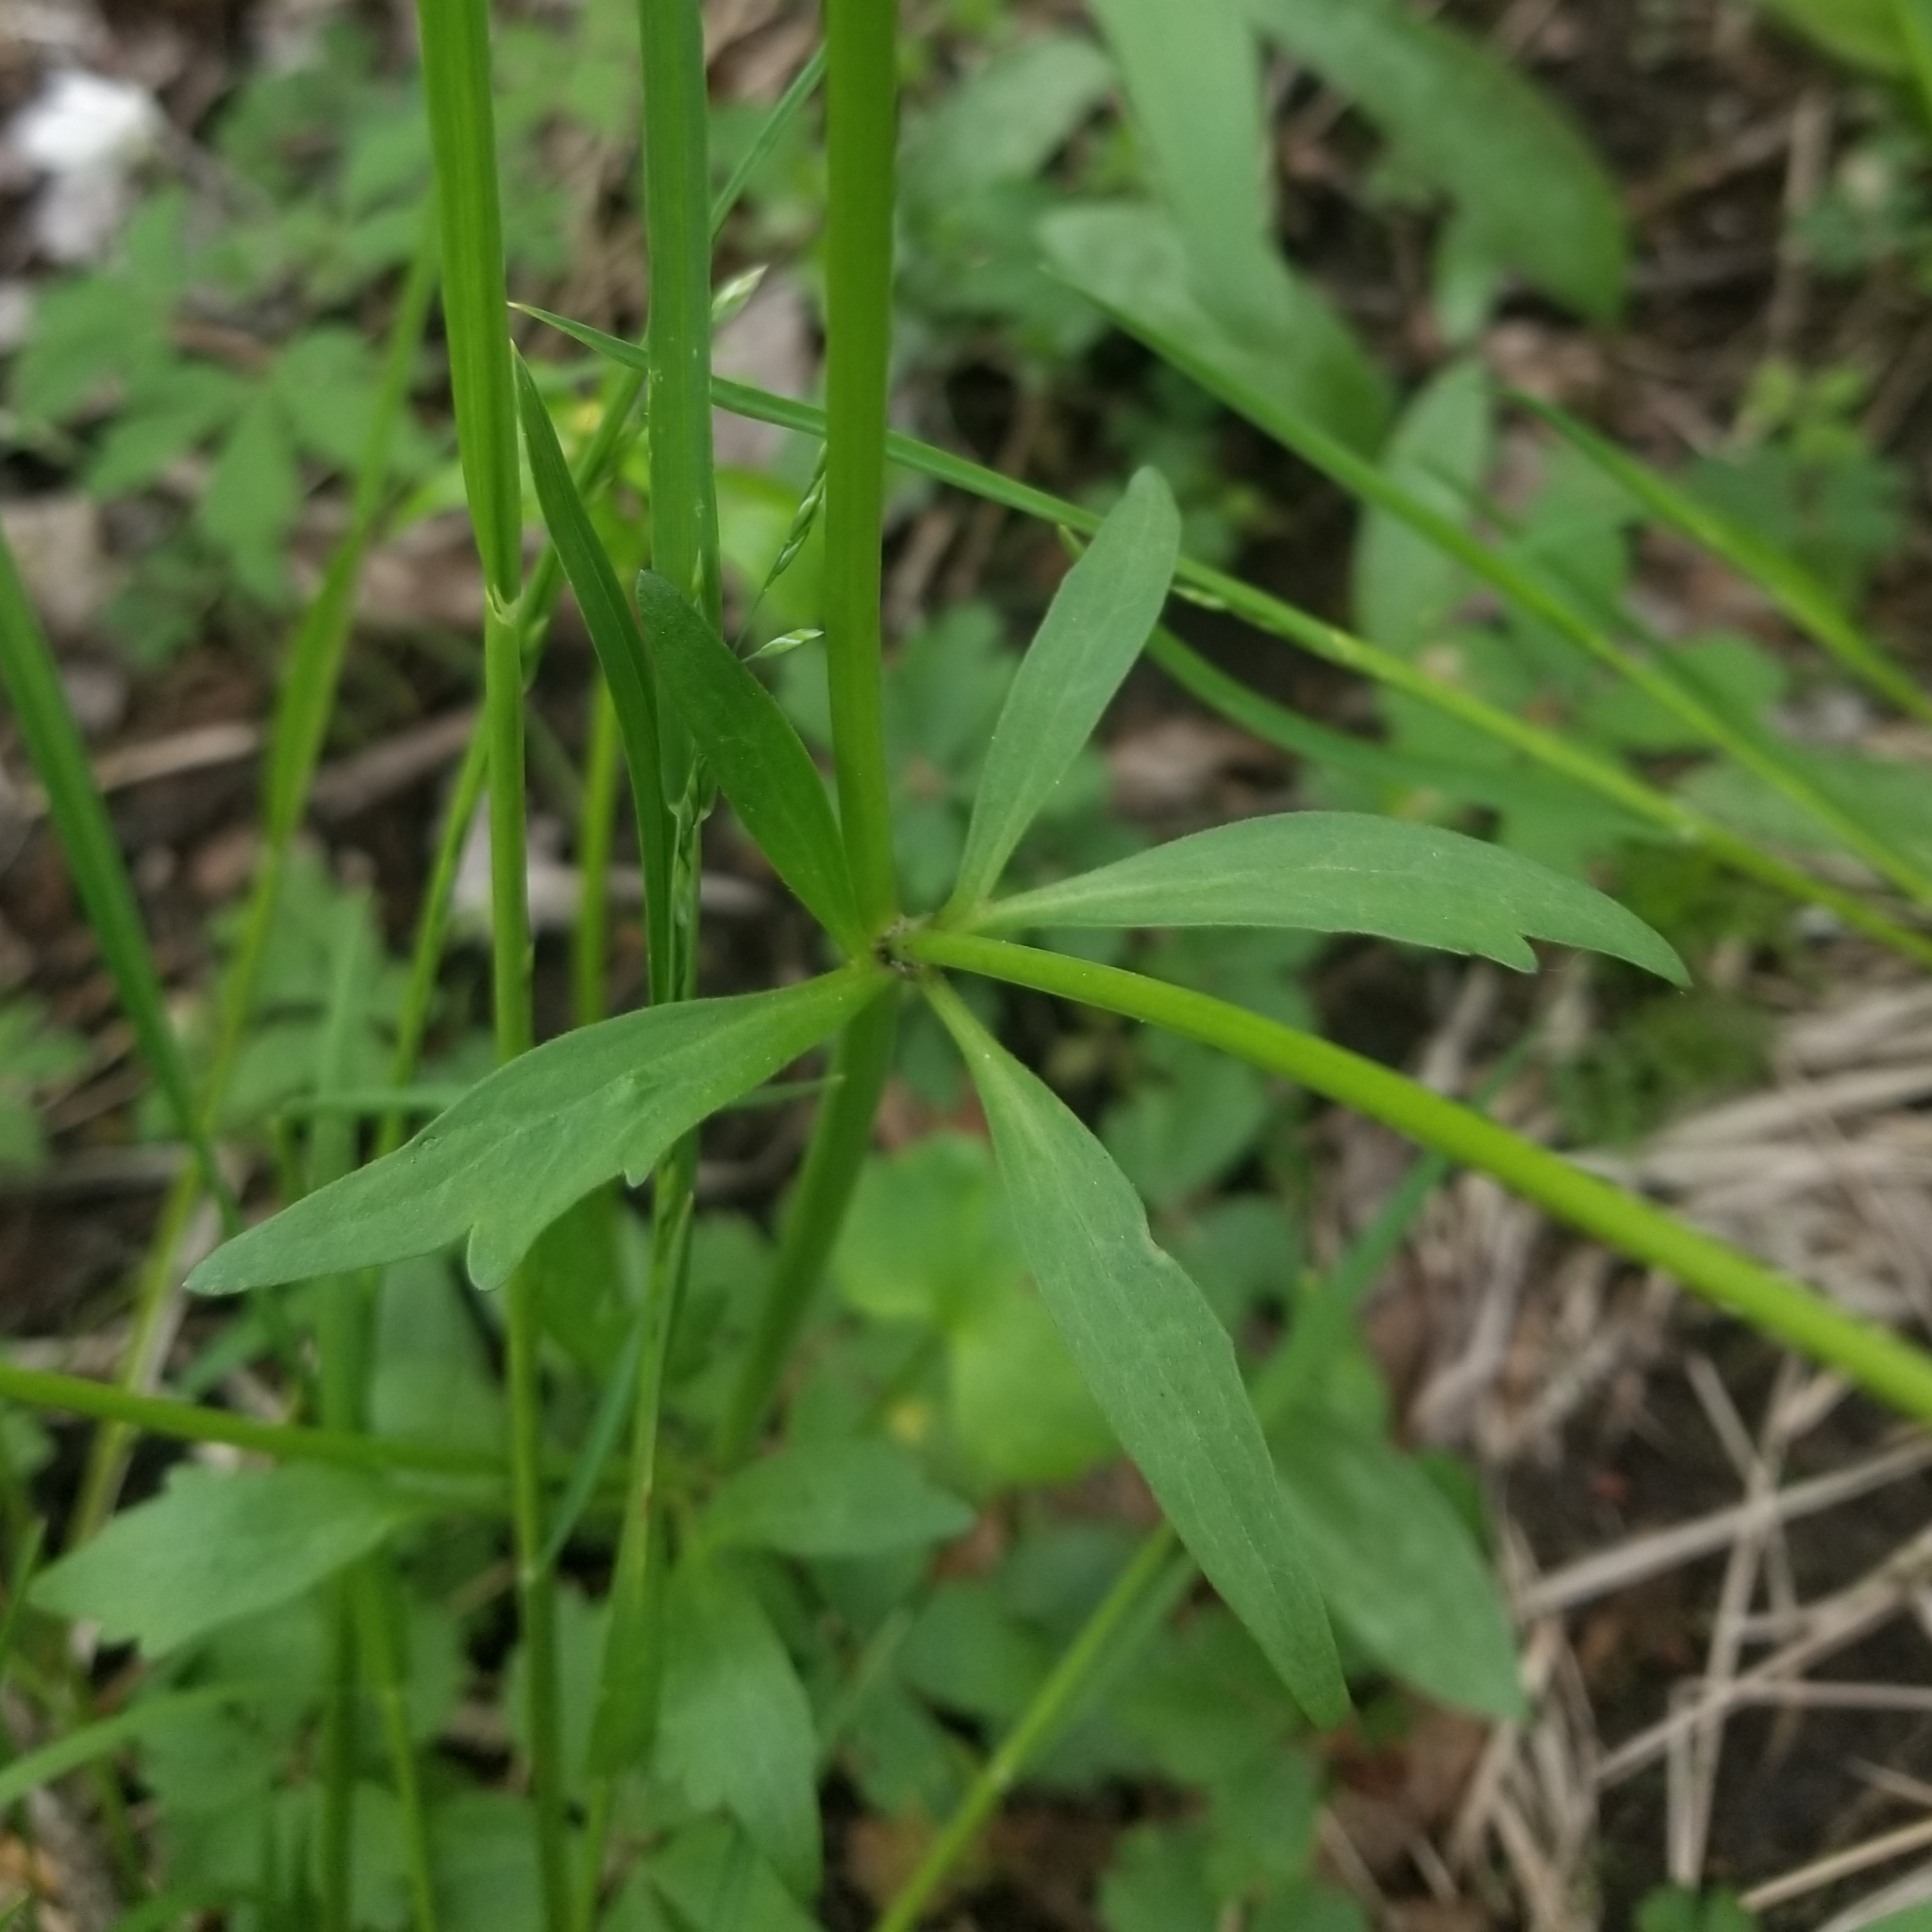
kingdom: Plantae
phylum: Tracheophyta
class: Magnoliopsida
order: Ranunculales
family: Ranunculaceae
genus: Ranunculus
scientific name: Ranunculus abortivus
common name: Early wood buttercup
